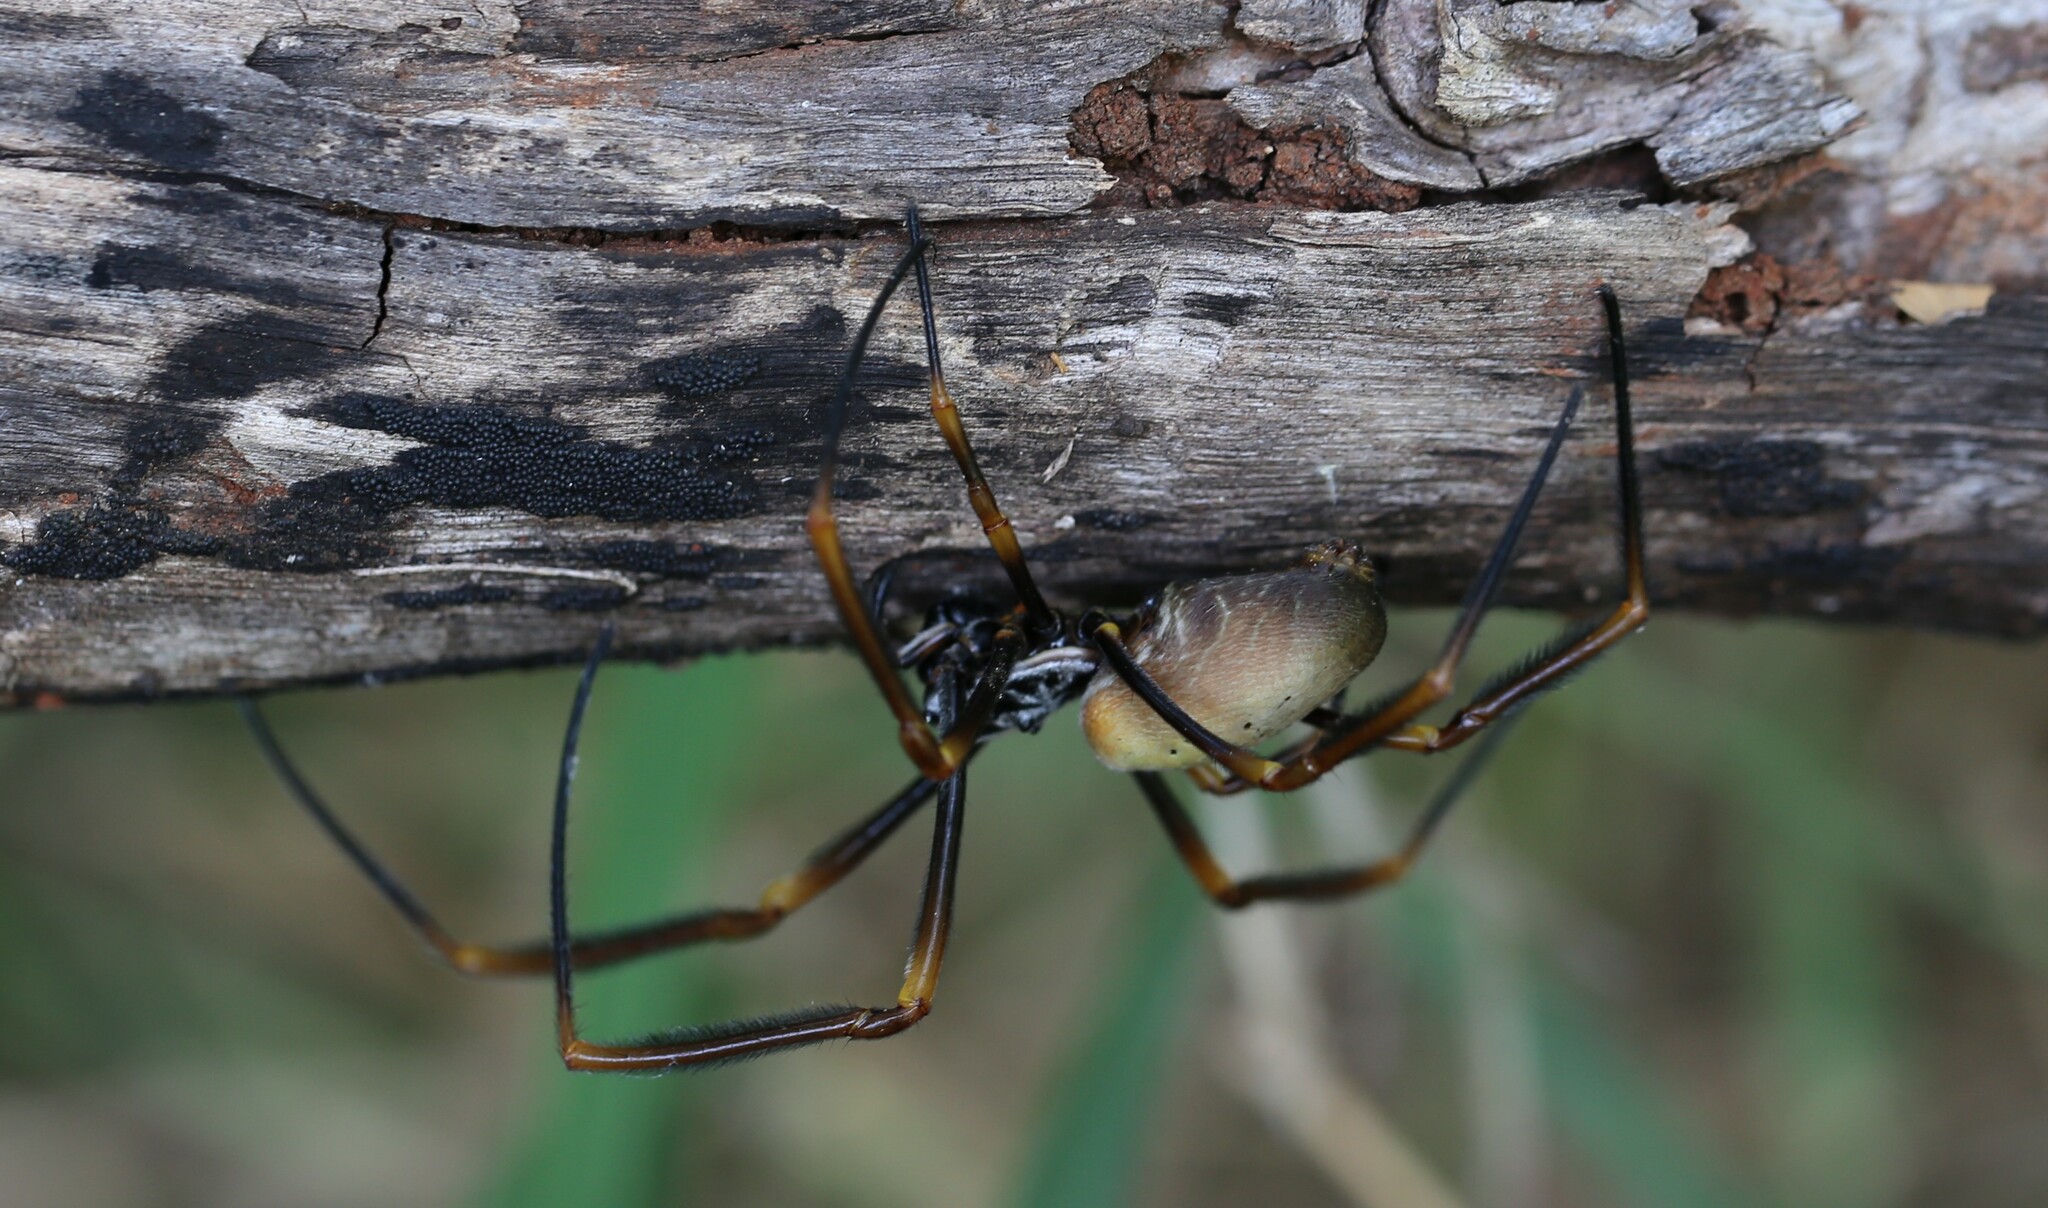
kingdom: Animalia
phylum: Arthropoda
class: Arachnida
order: Araneae
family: Araneidae
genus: Trichonephila
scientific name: Trichonephila plumipes
